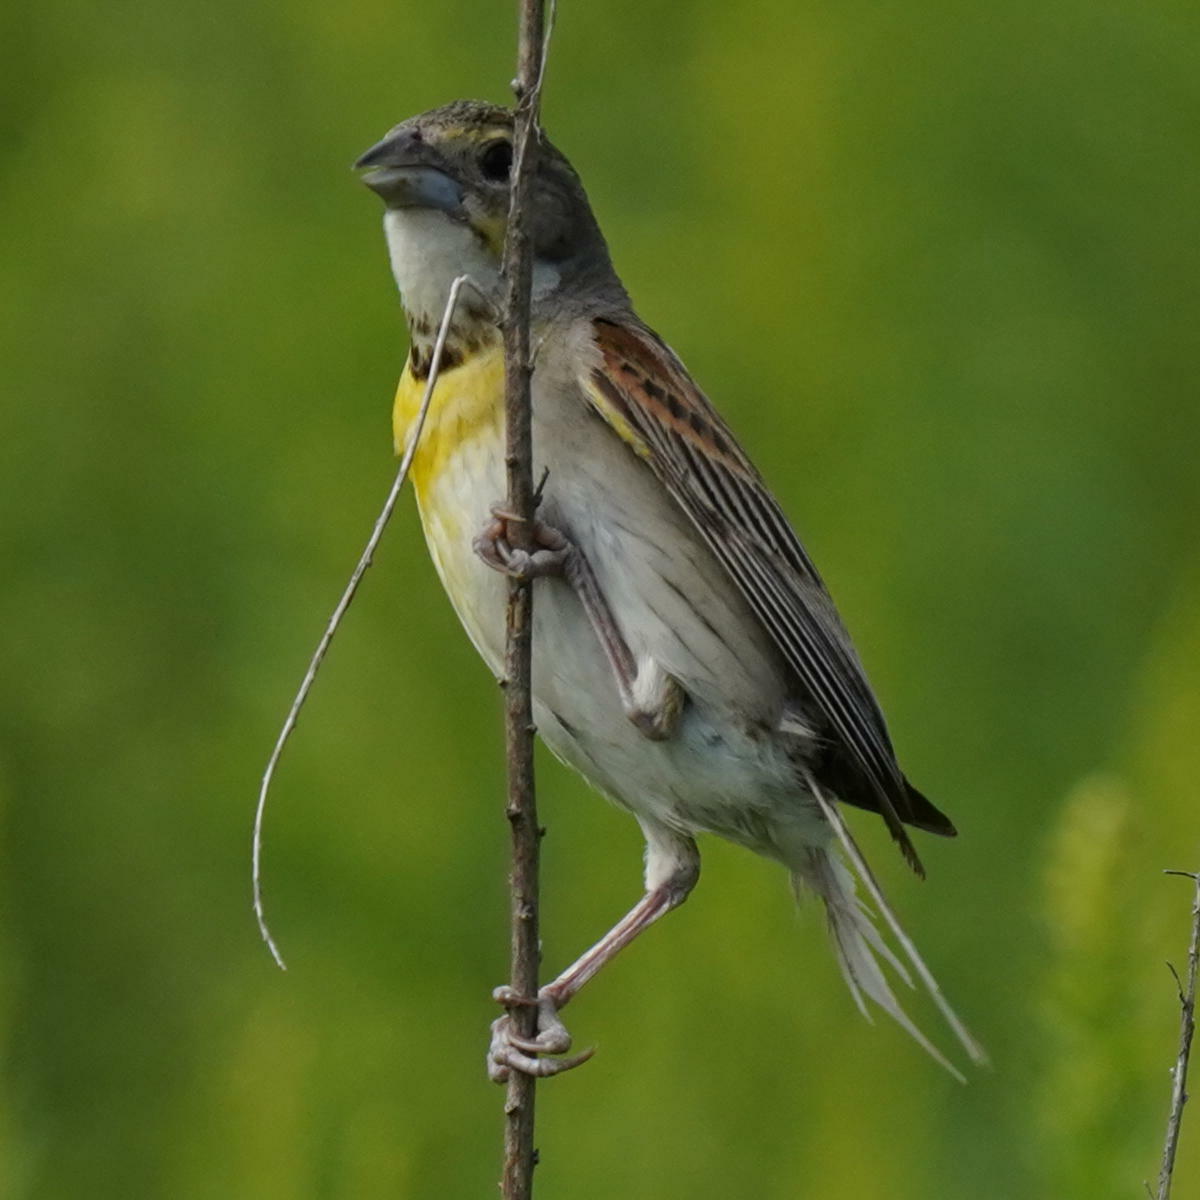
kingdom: Animalia
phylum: Chordata
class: Aves
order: Passeriformes
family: Cardinalidae
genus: Spiza
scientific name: Spiza americana
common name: Dickcissel
